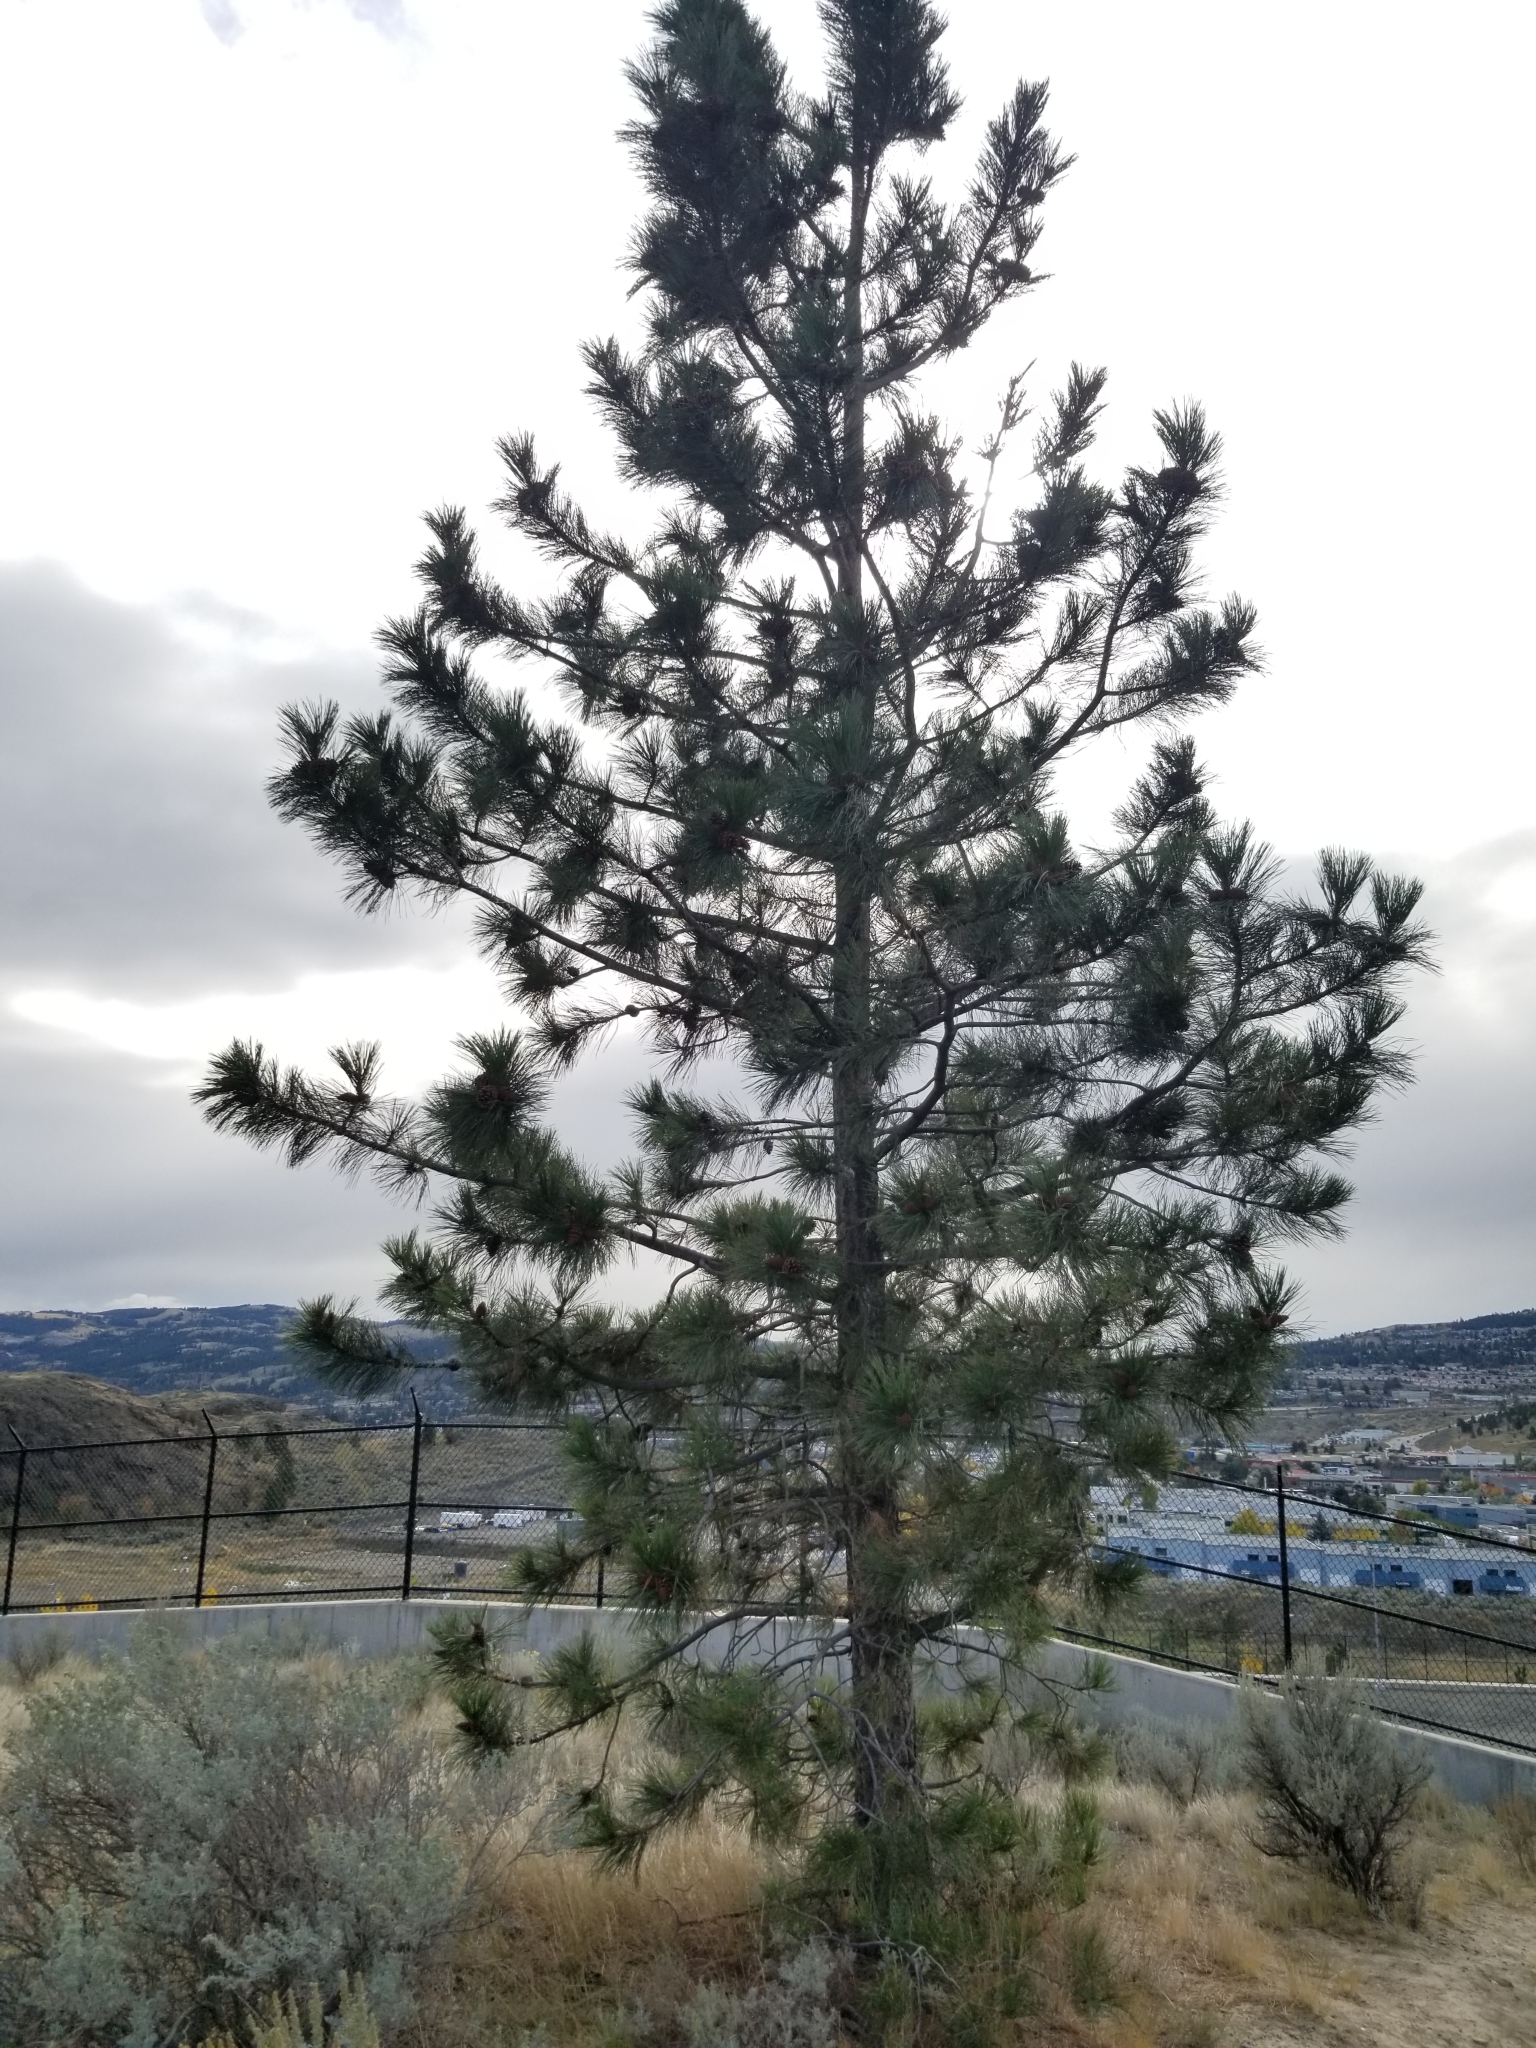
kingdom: Plantae
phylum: Tracheophyta
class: Pinopsida
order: Pinales
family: Pinaceae
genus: Pinus
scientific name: Pinus ponderosa
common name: Western yellow-pine
